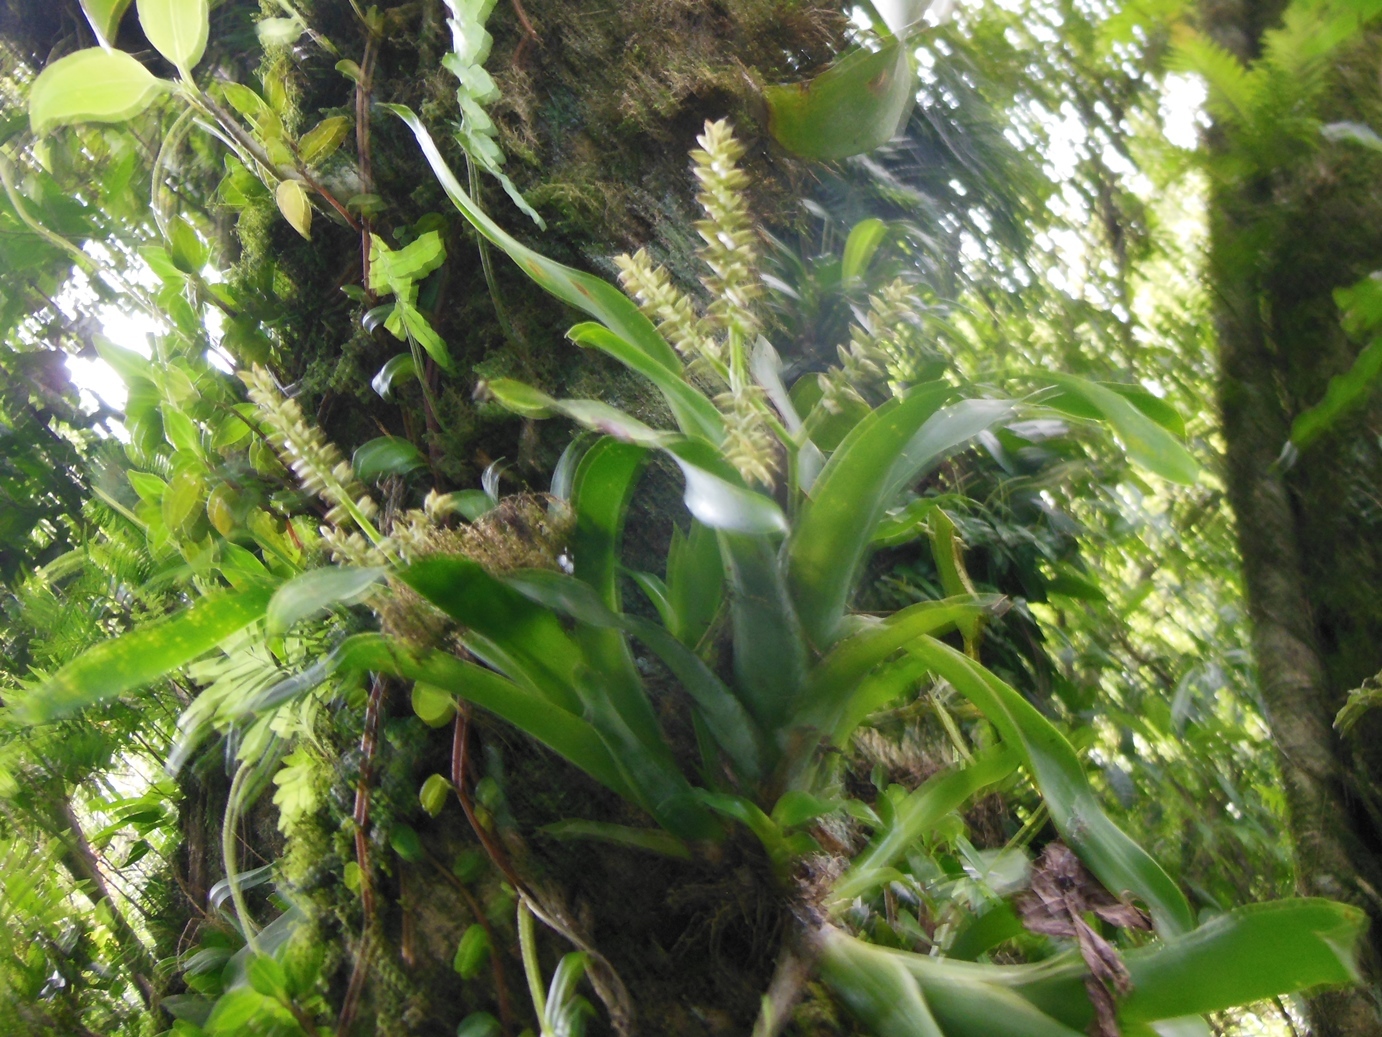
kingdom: Plantae
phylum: Tracheophyta
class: Liliopsida
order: Poales
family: Bromeliaceae
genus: Catopsis
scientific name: Catopsis wawranea
